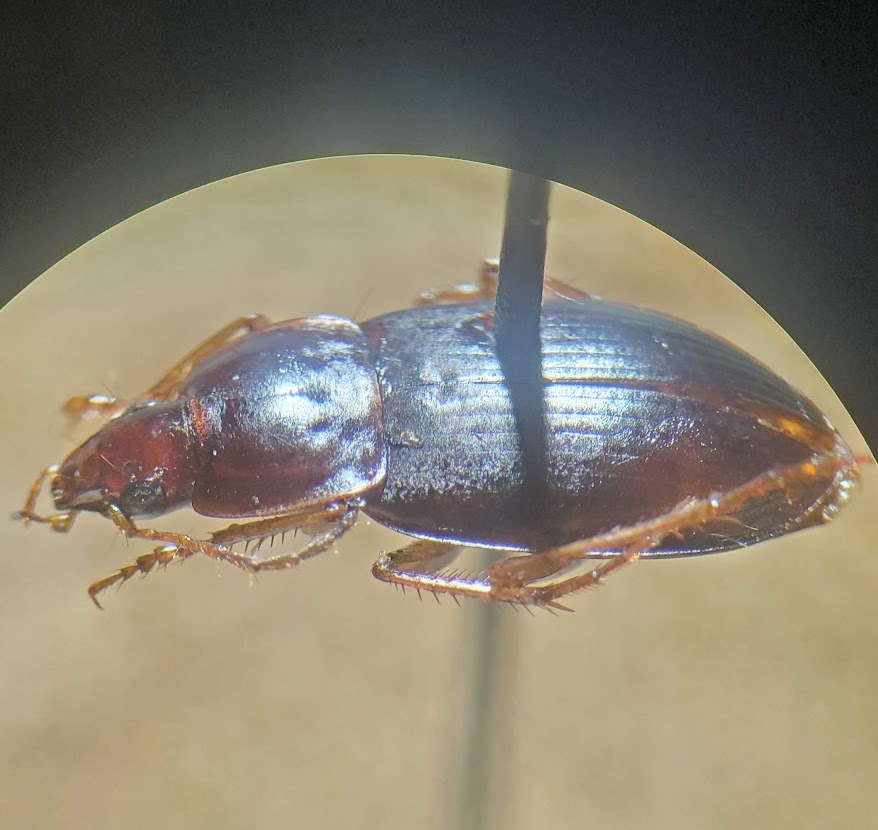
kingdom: Animalia
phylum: Arthropoda
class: Insecta
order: Coleoptera
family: Carabidae
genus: Calathus
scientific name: Calathus ruficollis
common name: Red-collared harp ground beetle
